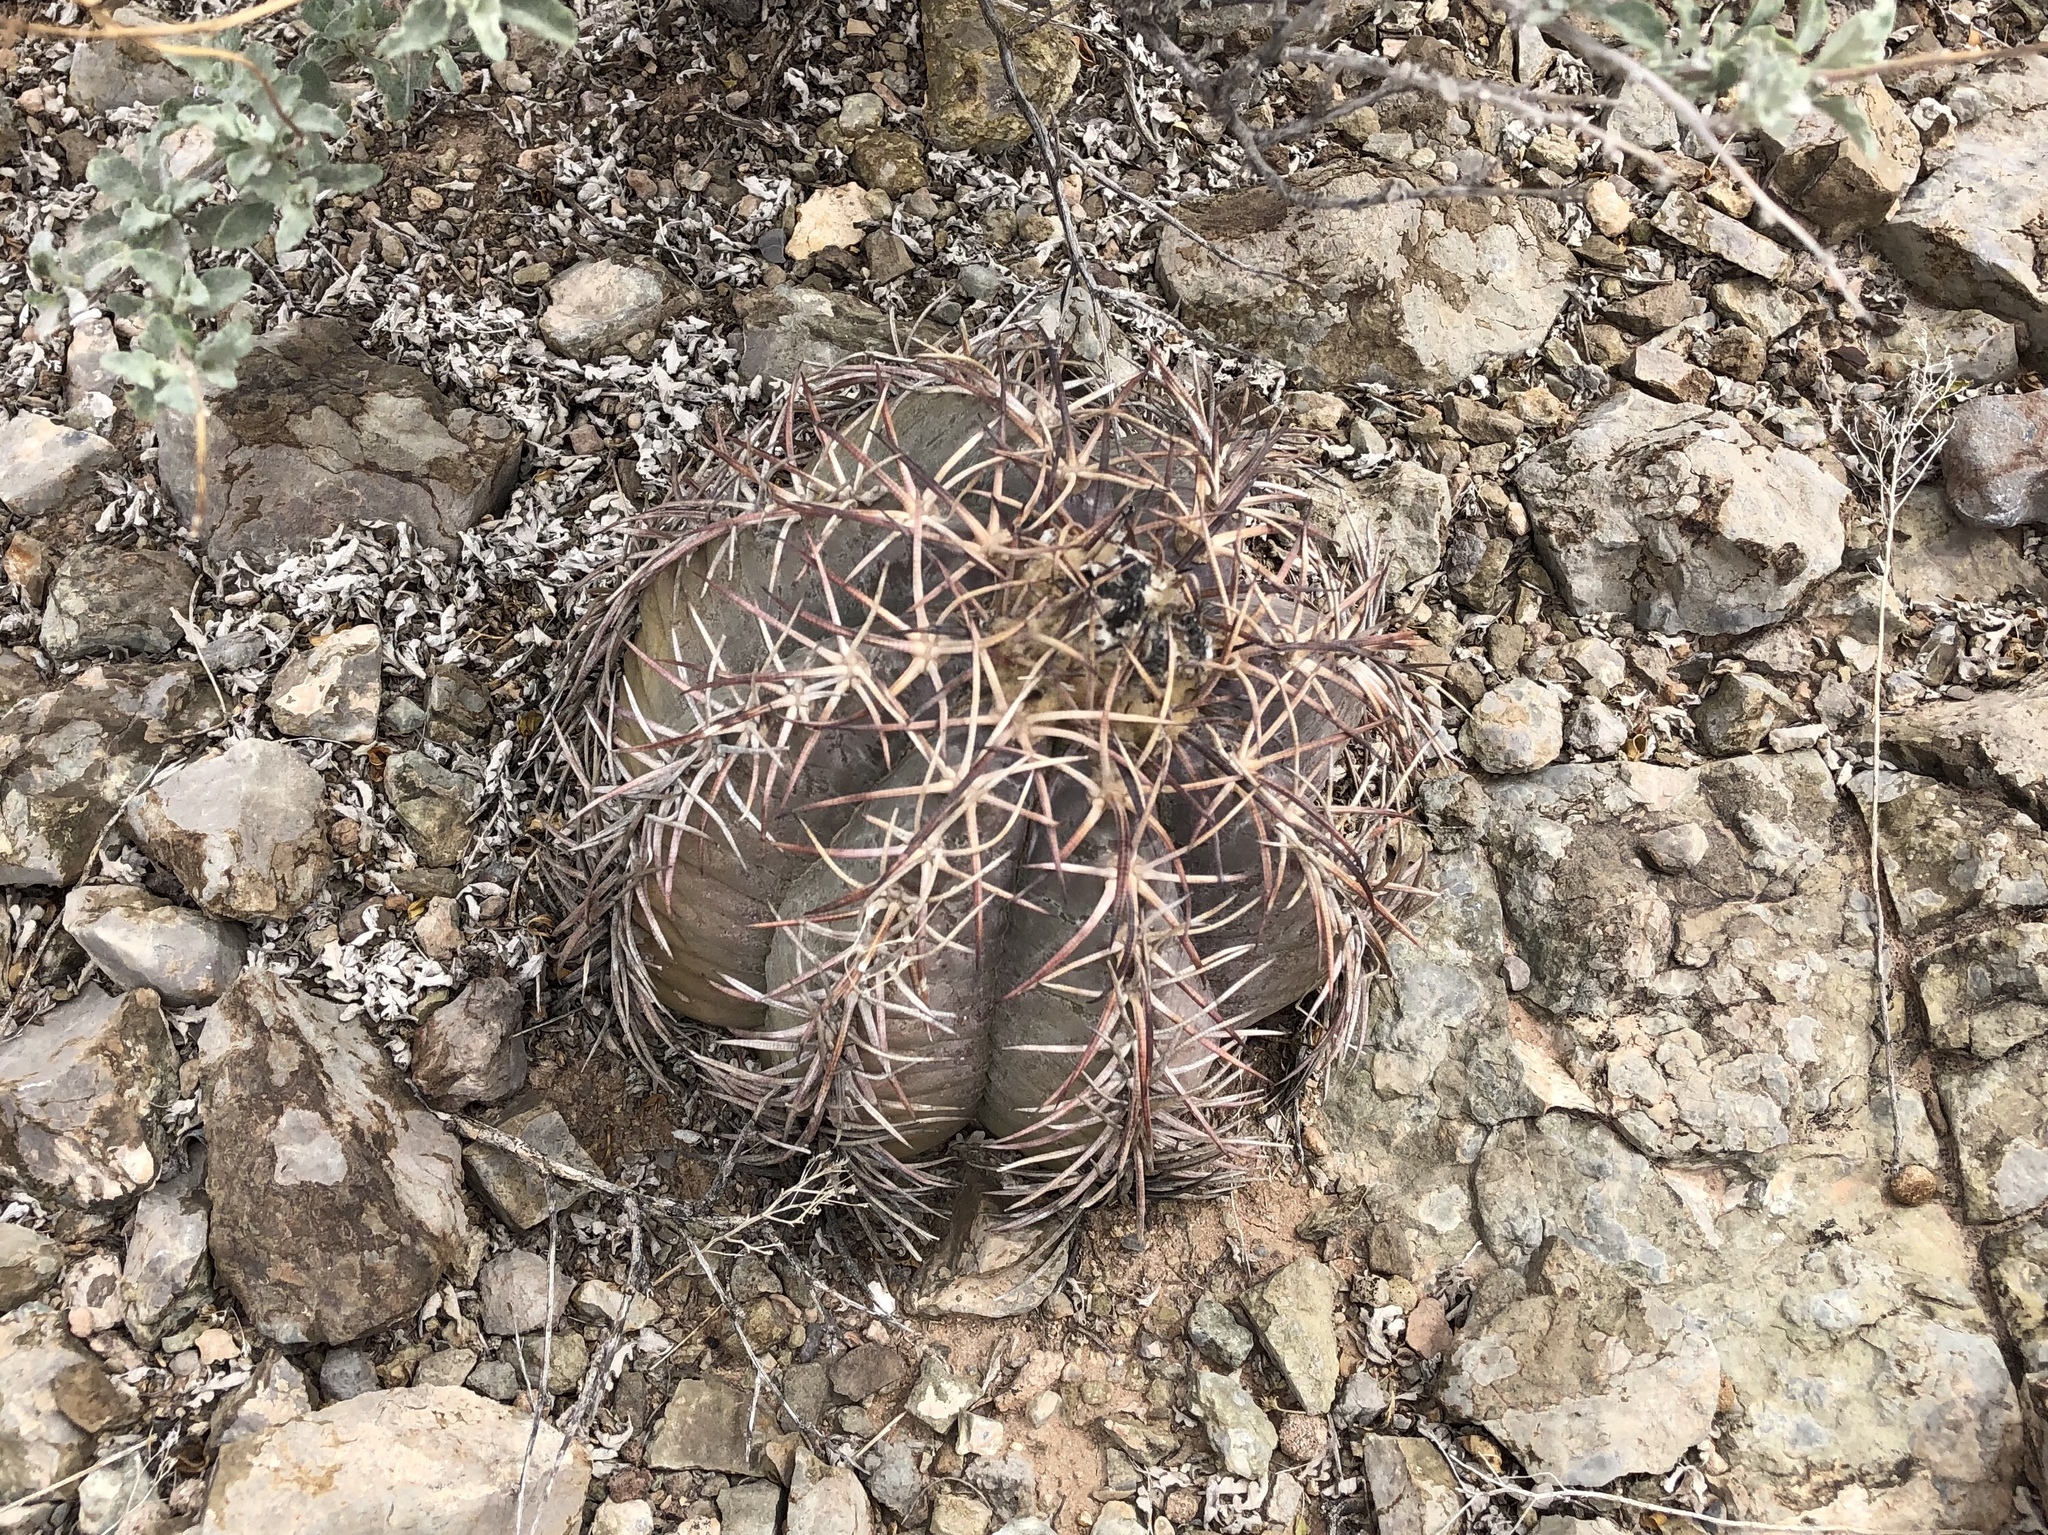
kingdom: Plantae
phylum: Tracheophyta
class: Magnoliopsida
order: Caryophyllales
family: Cactaceae
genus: Echinocactus
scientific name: Echinocactus horizonthalonius
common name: Devilshead
